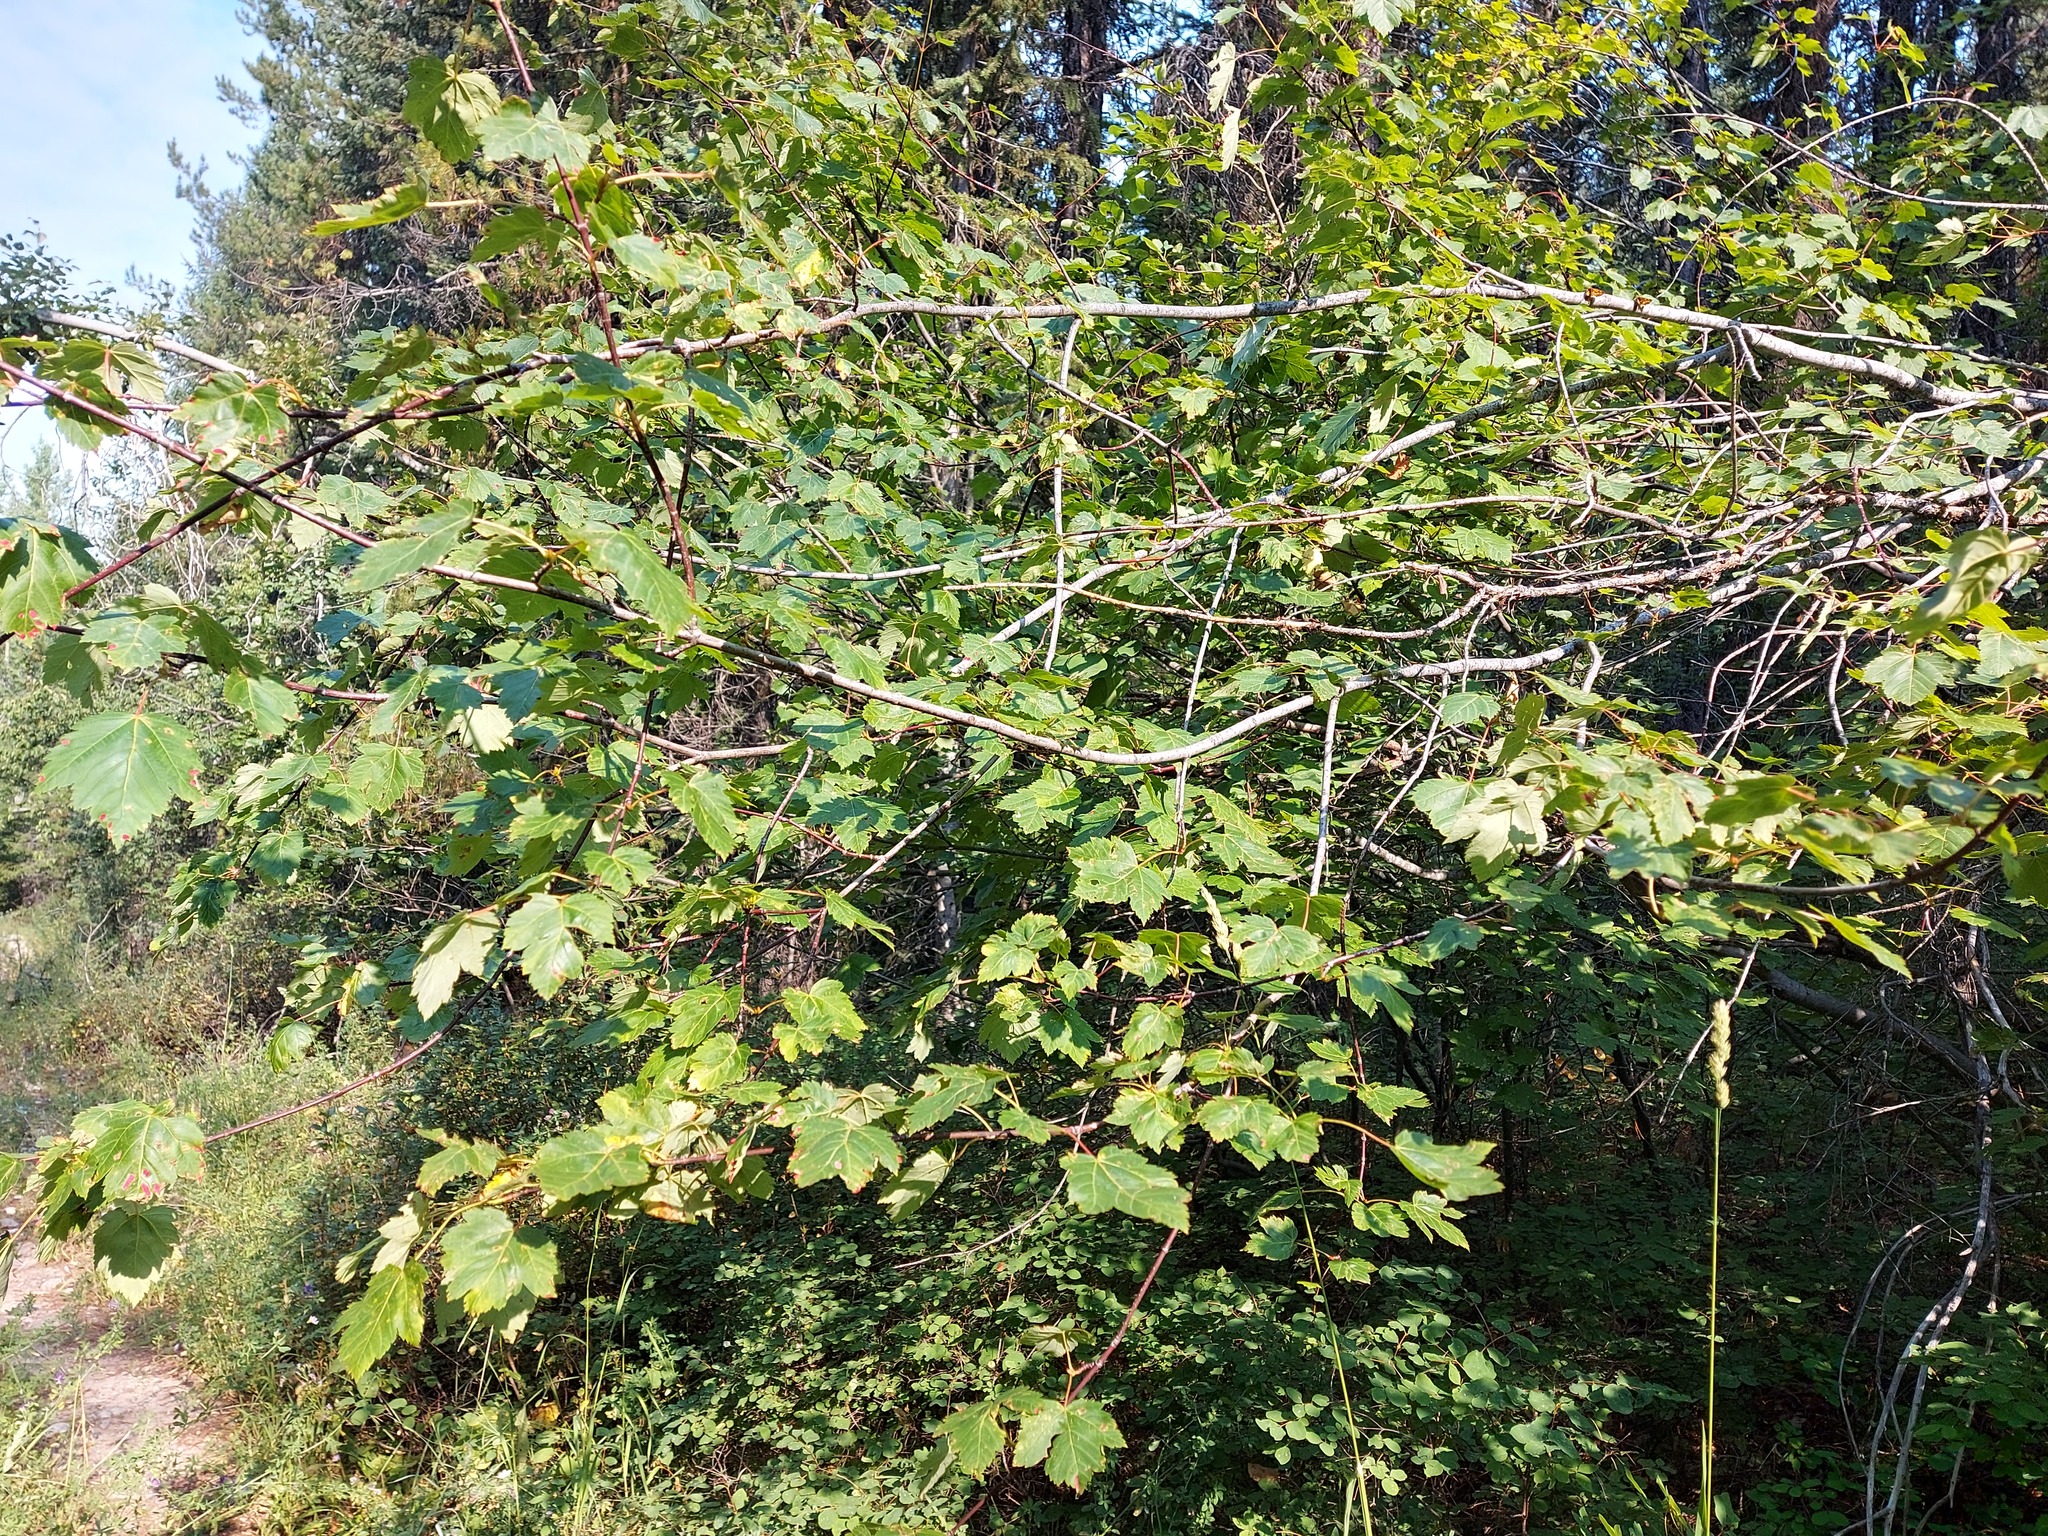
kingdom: Plantae
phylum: Tracheophyta
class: Magnoliopsida
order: Sapindales
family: Sapindaceae
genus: Acer
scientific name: Acer glabrum
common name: Rocky mountain maple
